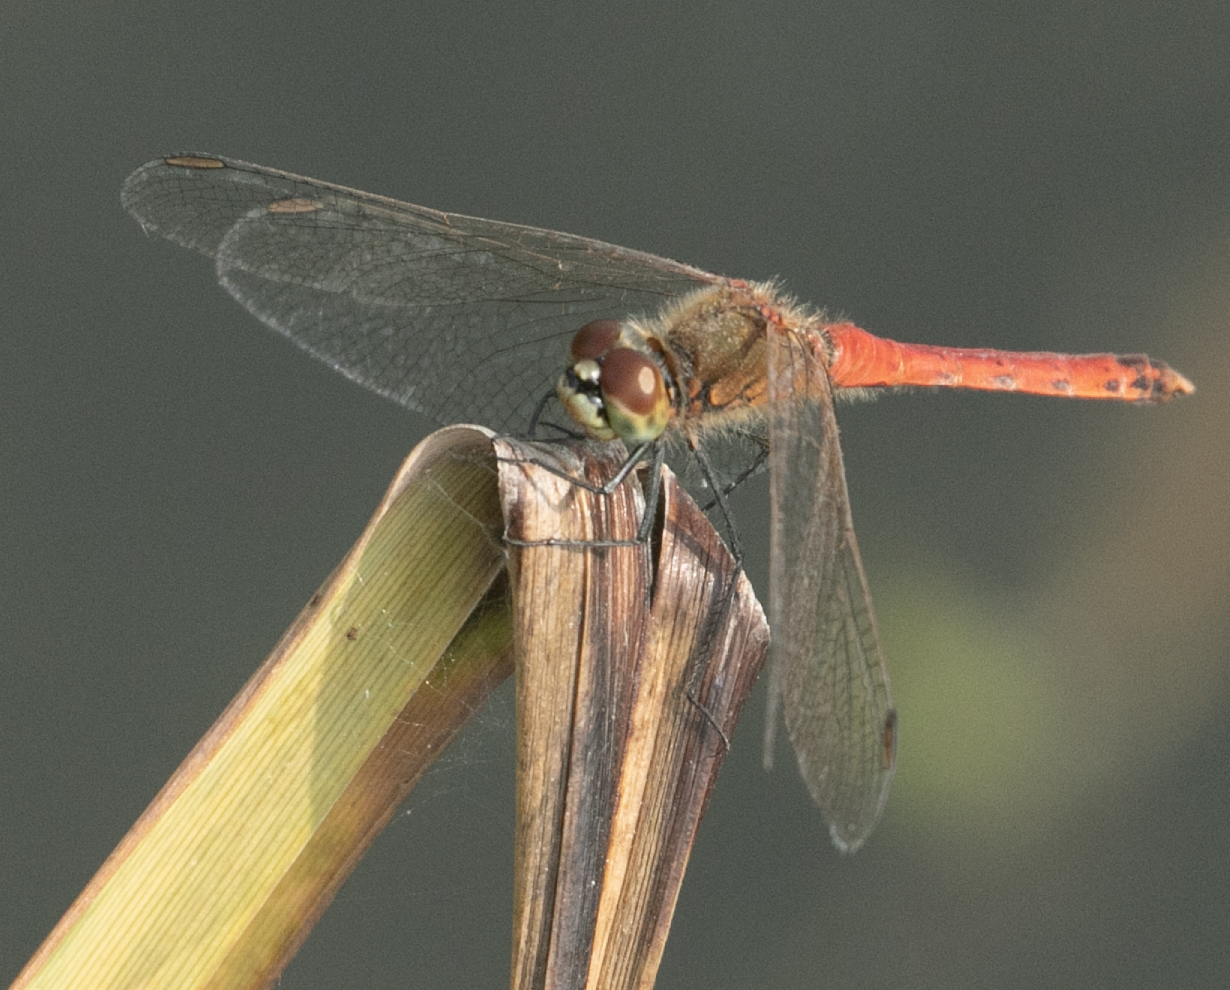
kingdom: Animalia
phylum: Arthropoda
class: Insecta
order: Odonata
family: Libellulidae
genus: Sympetrum
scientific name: Sympetrum depressiusculum
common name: Spotted darter
